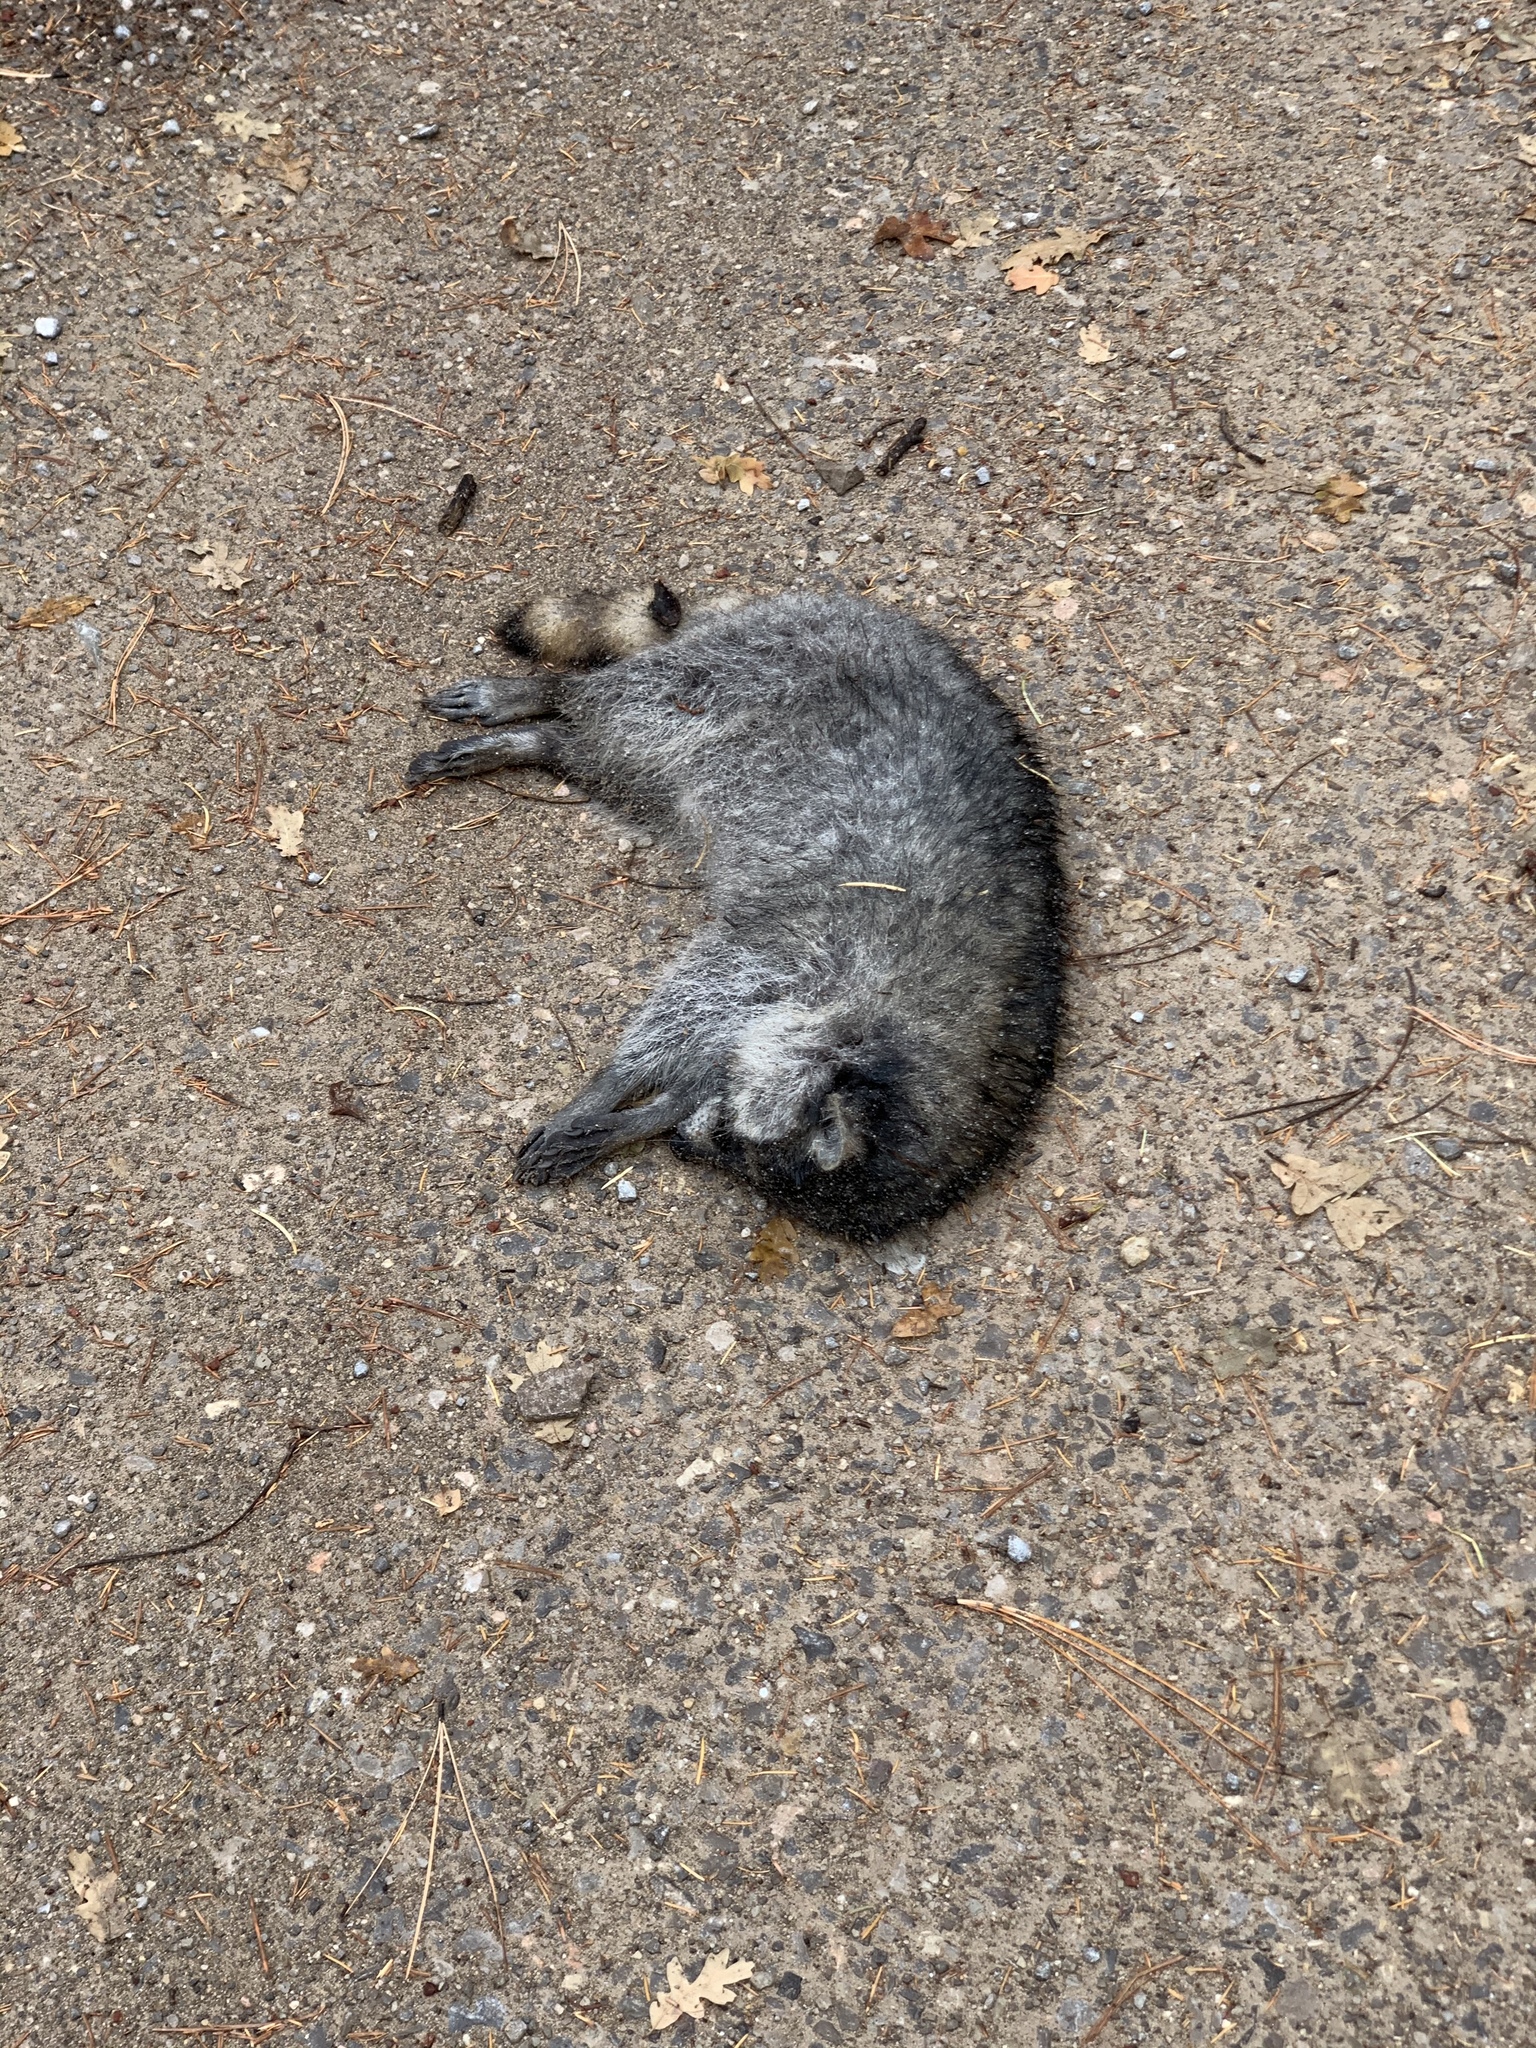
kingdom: Animalia
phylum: Chordata
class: Mammalia
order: Carnivora
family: Procyonidae
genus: Procyon
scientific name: Procyon lotor
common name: Raccoon
